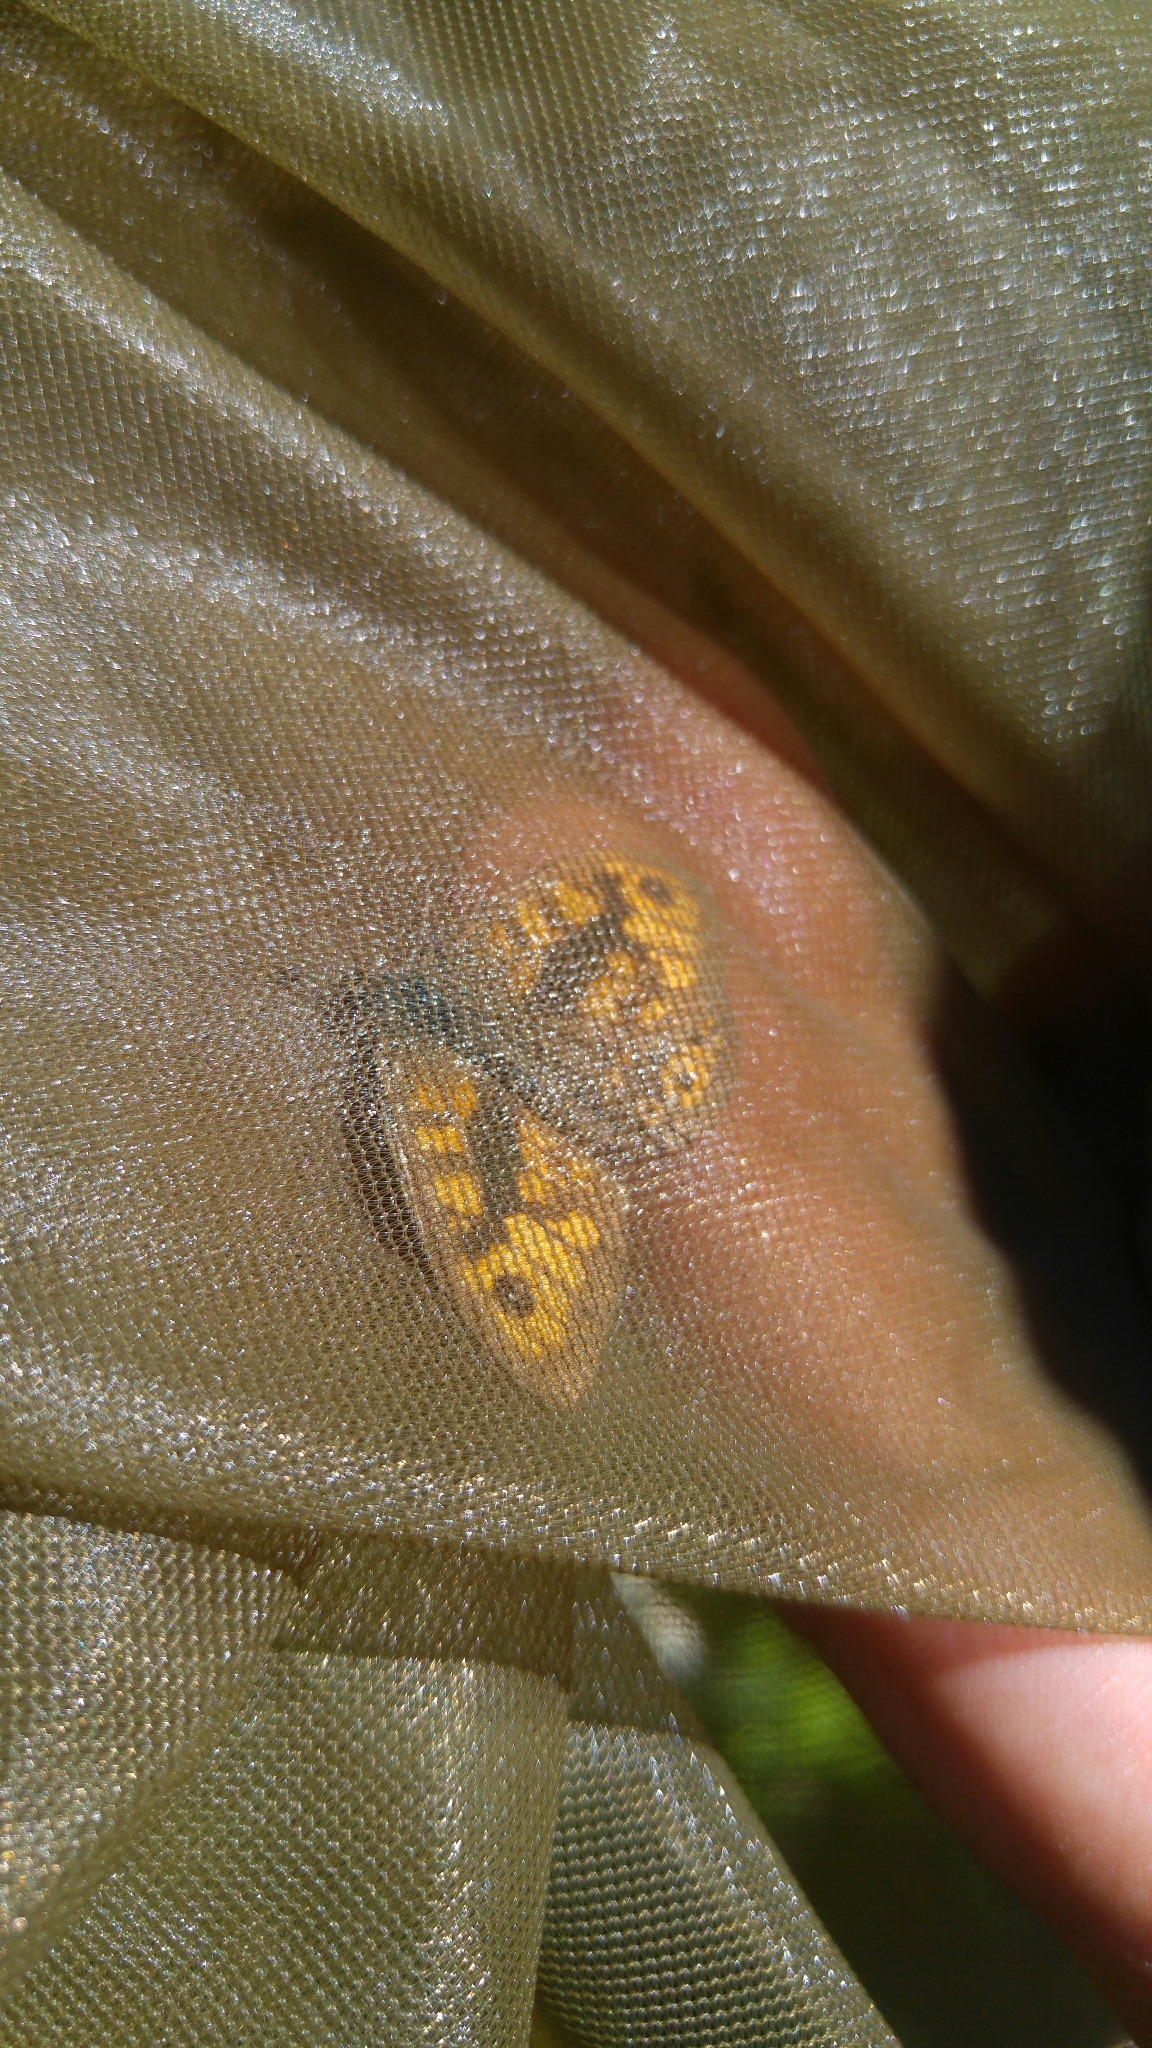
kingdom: Animalia
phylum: Arthropoda
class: Insecta
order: Lepidoptera
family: Nymphalidae
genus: Pararge
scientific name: Pararge Lasiommata megera
